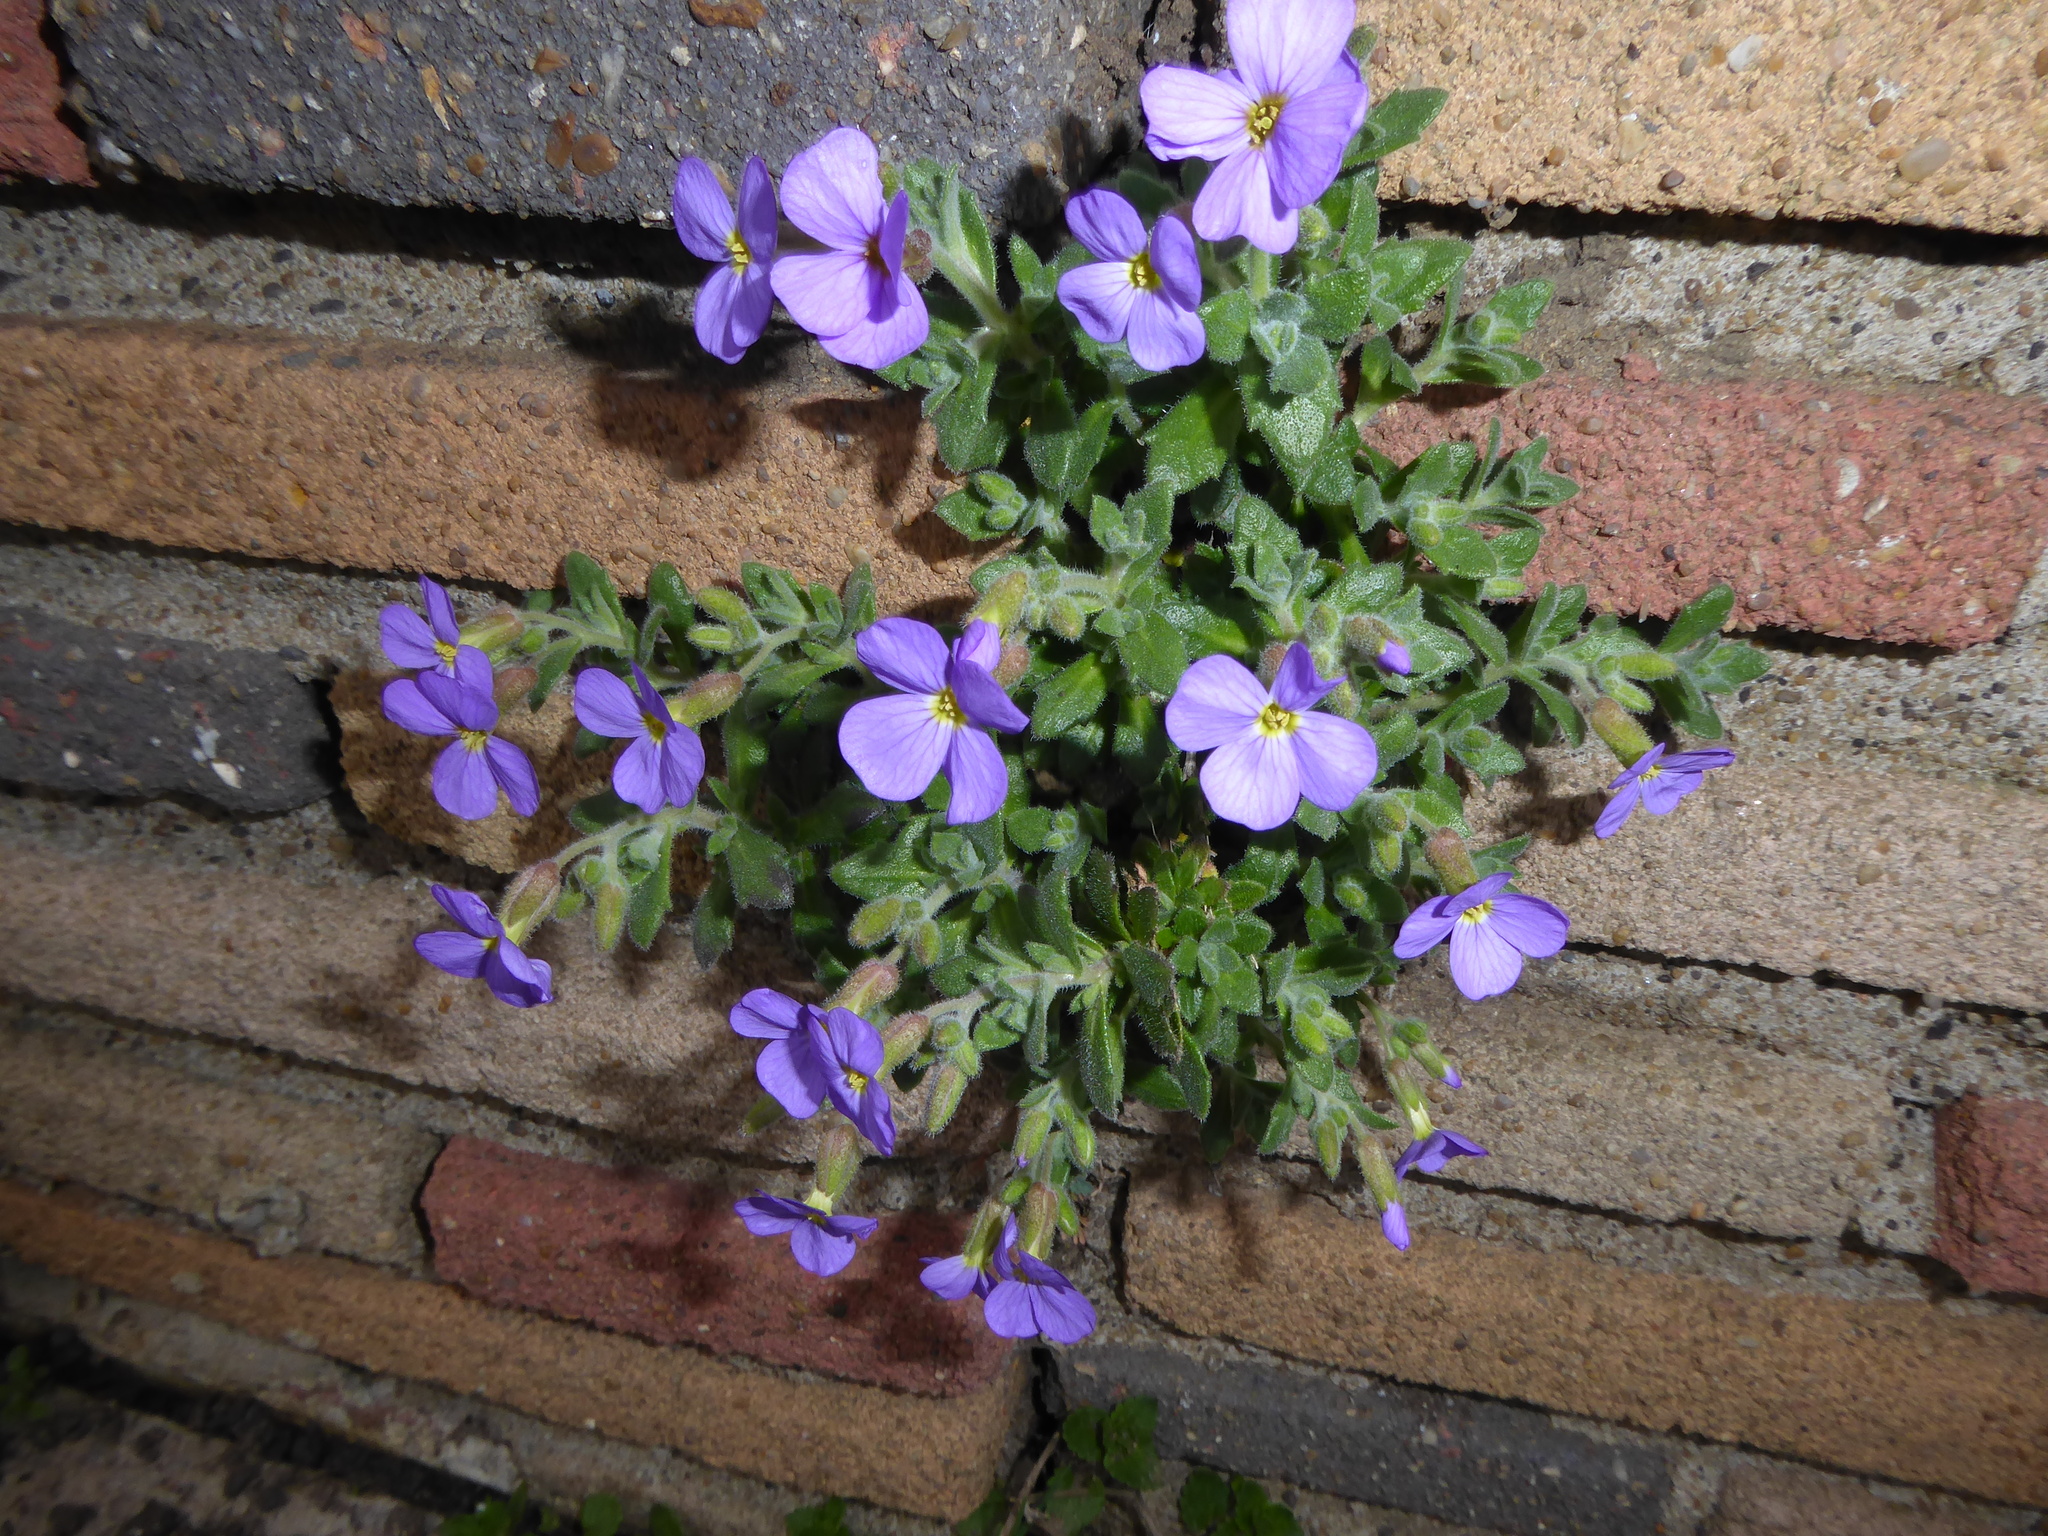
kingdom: Plantae
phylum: Tracheophyta
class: Magnoliopsida
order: Brassicales
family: Brassicaceae
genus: Aubrieta
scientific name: Aubrieta deltoidea
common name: Aubretia
